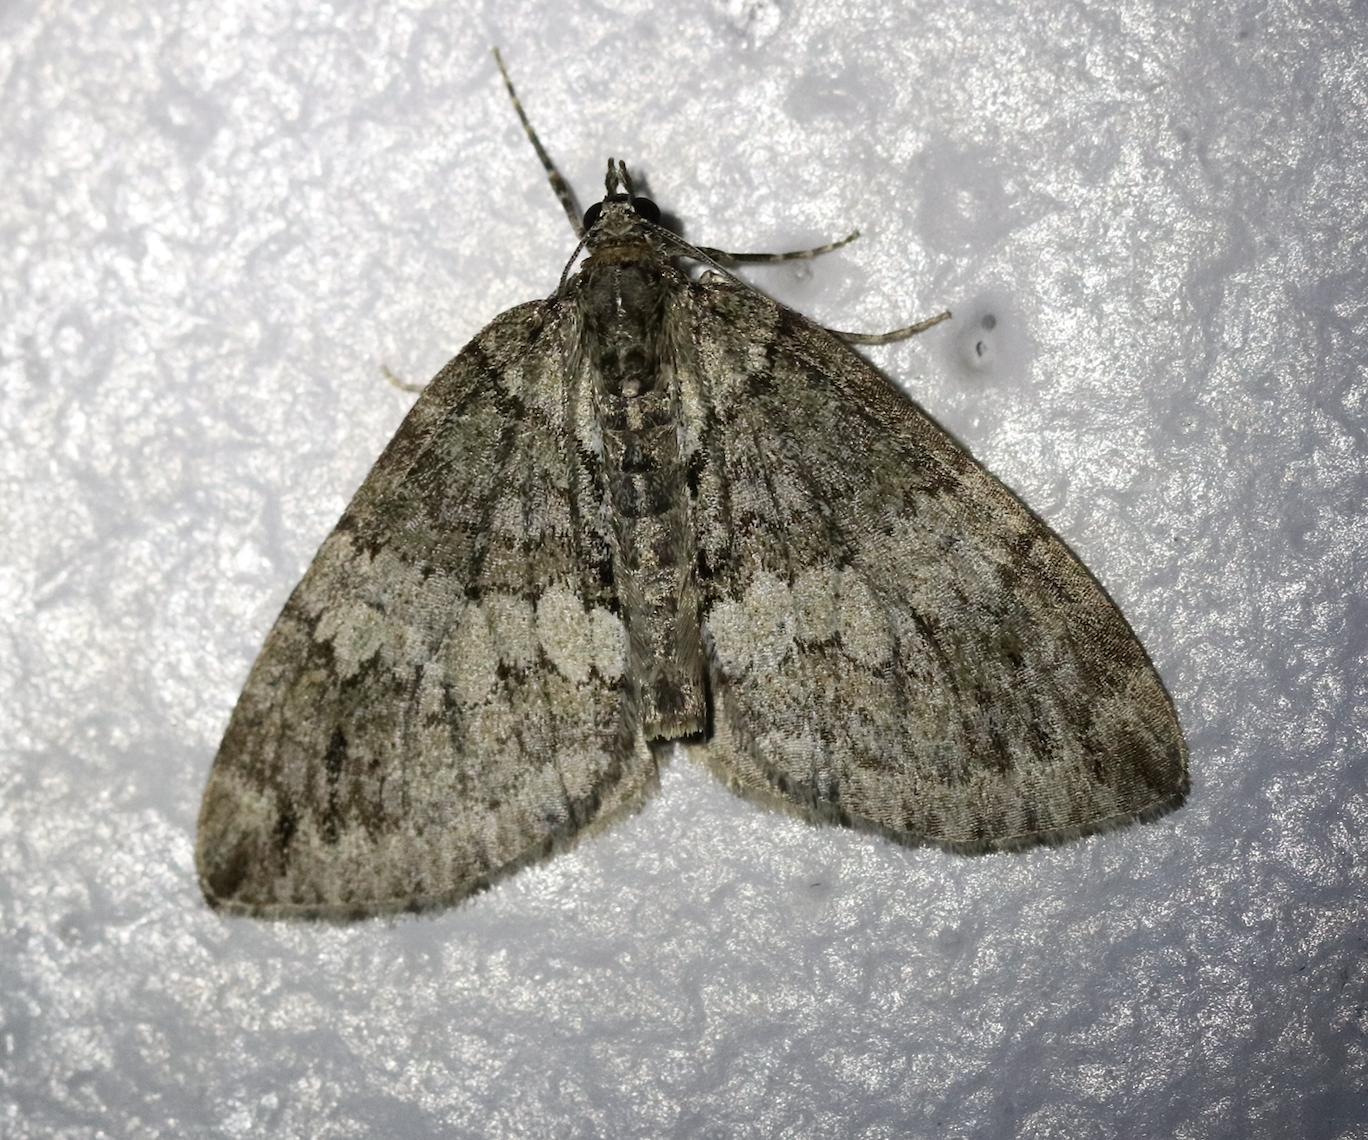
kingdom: Animalia
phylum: Arthropoda
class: Insecta
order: Lepidoptera
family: Geometridae
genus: Hydriomena
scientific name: Hydriomena impluviata
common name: May highflyer
